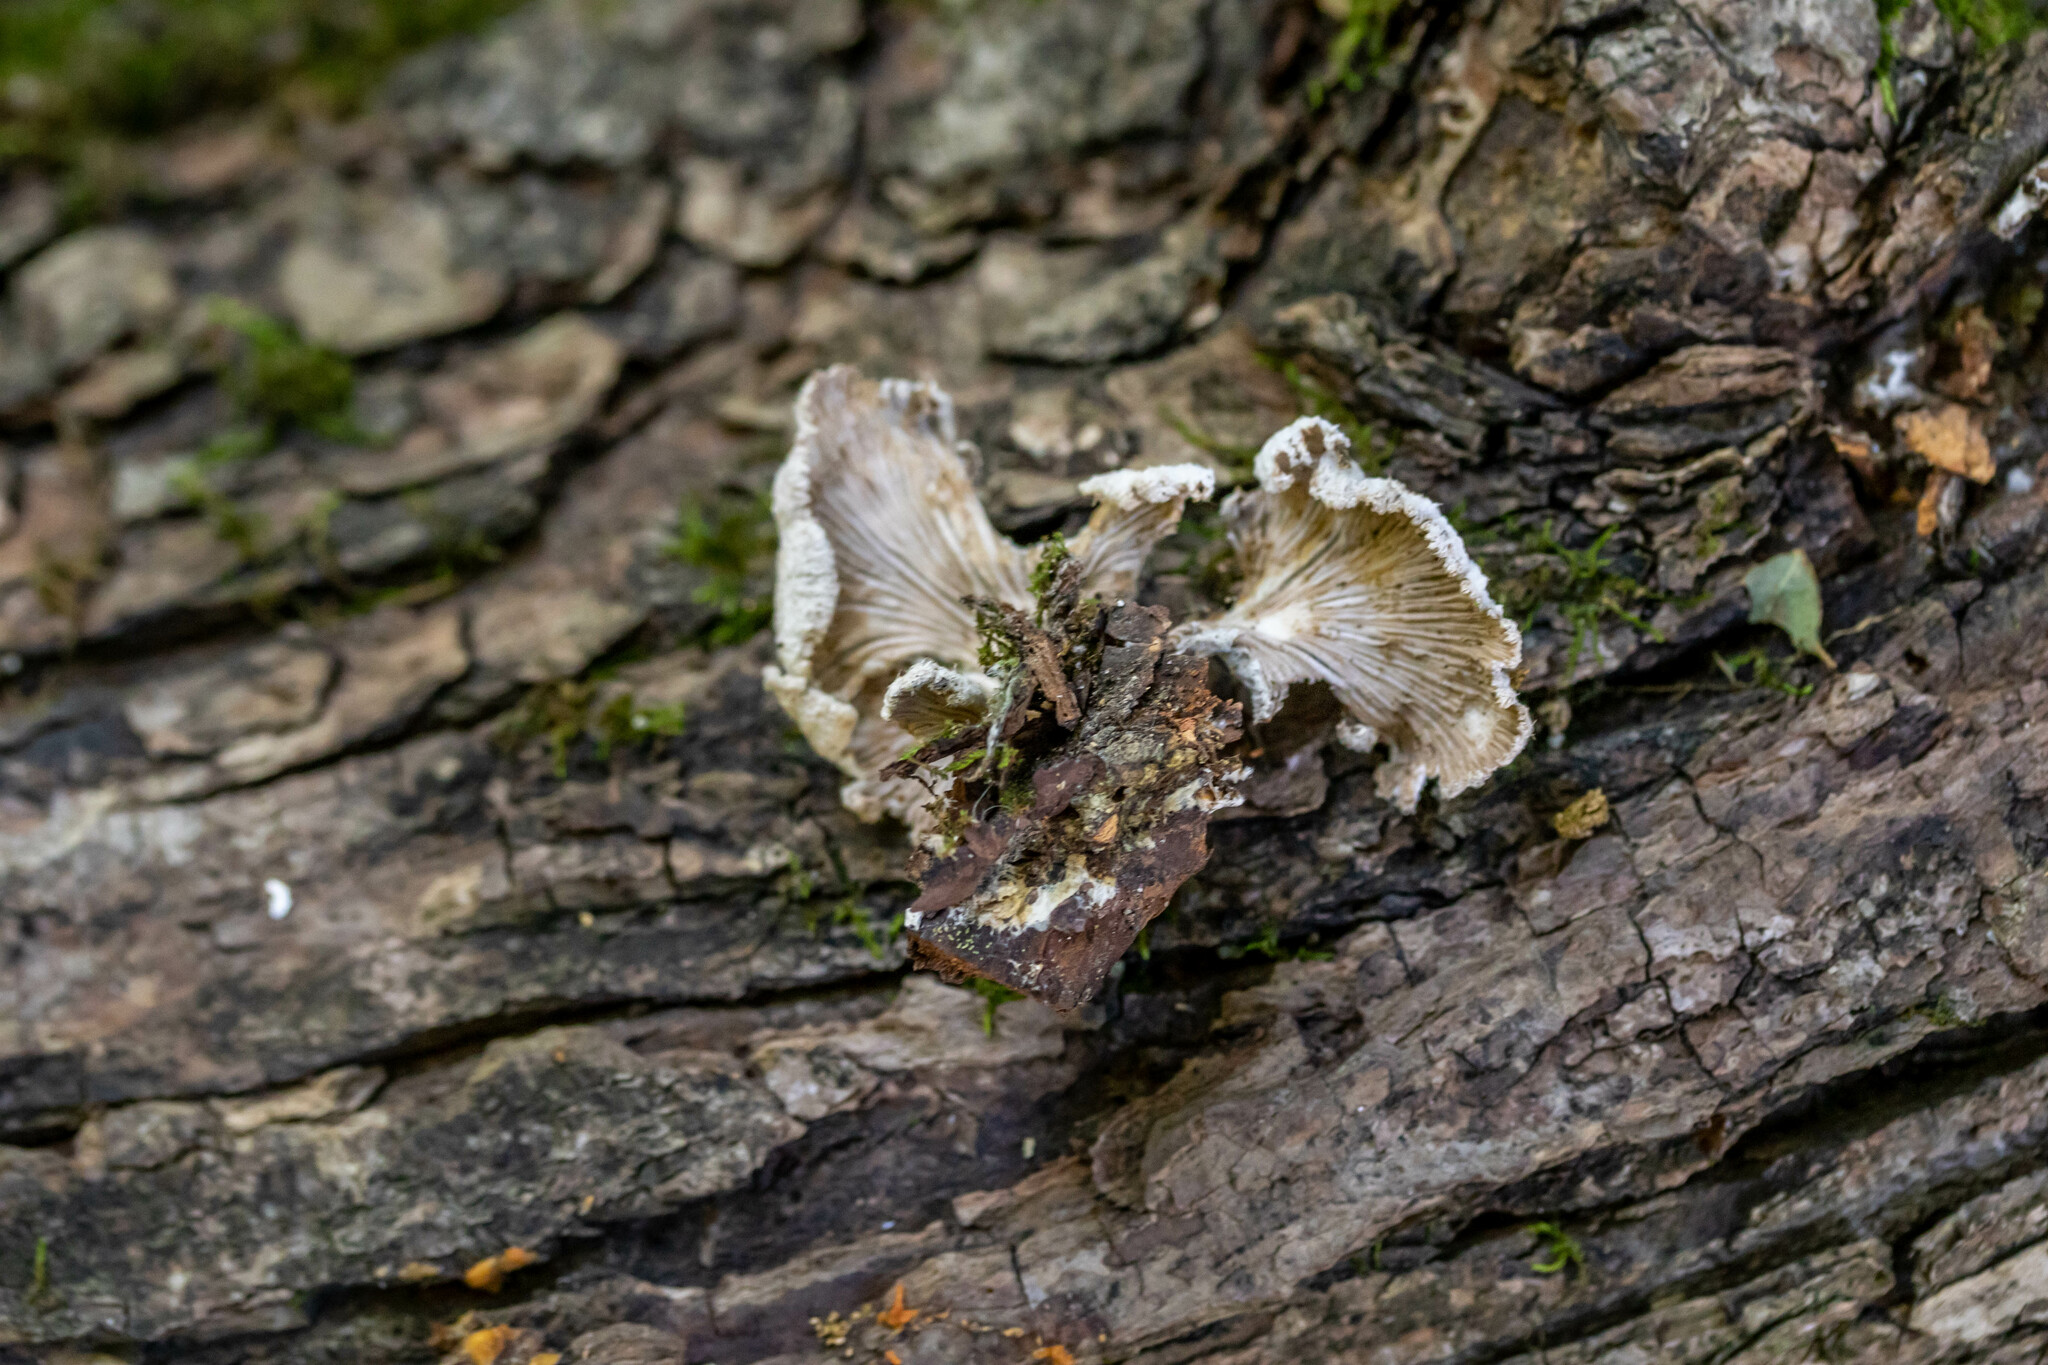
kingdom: Fungi
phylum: Basidiomycota
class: Agaricomycetes
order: Agaricales
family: Schizophyllaceae
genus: Schizophyllum
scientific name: Schizophyllum commune
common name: Common porecrust
